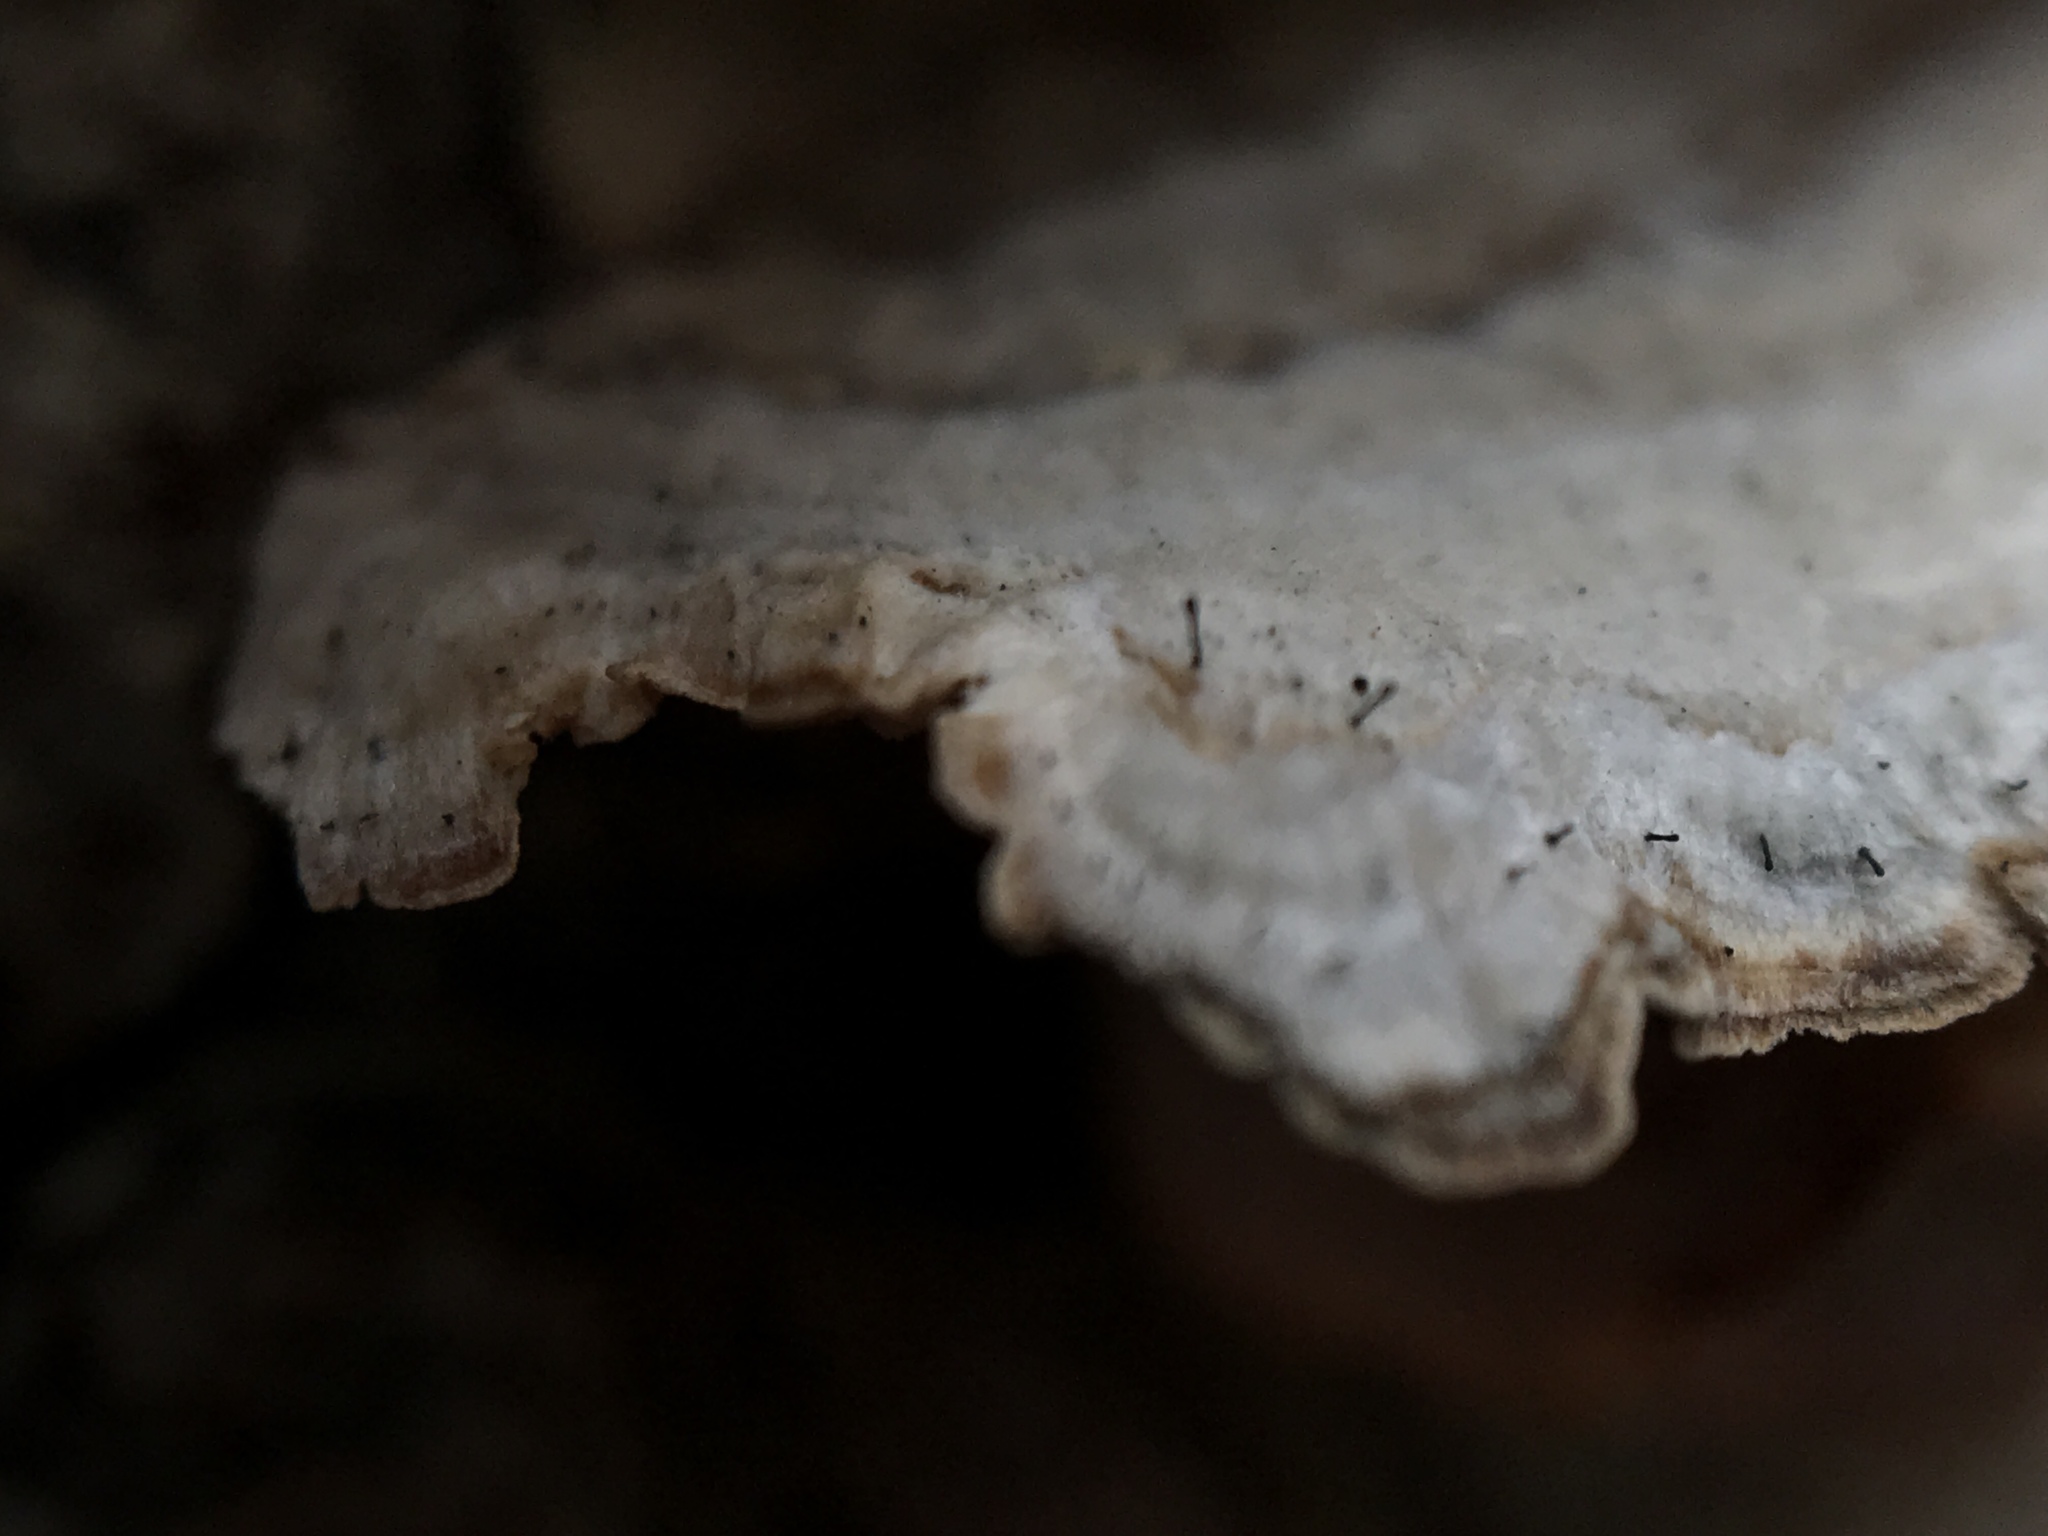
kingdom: Fungi
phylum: Basidiomycota
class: Agaricomycetes
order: Hymenochaetales
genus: Trichaptum
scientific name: Trichaptum biforme
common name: Violet-toothed polypore
